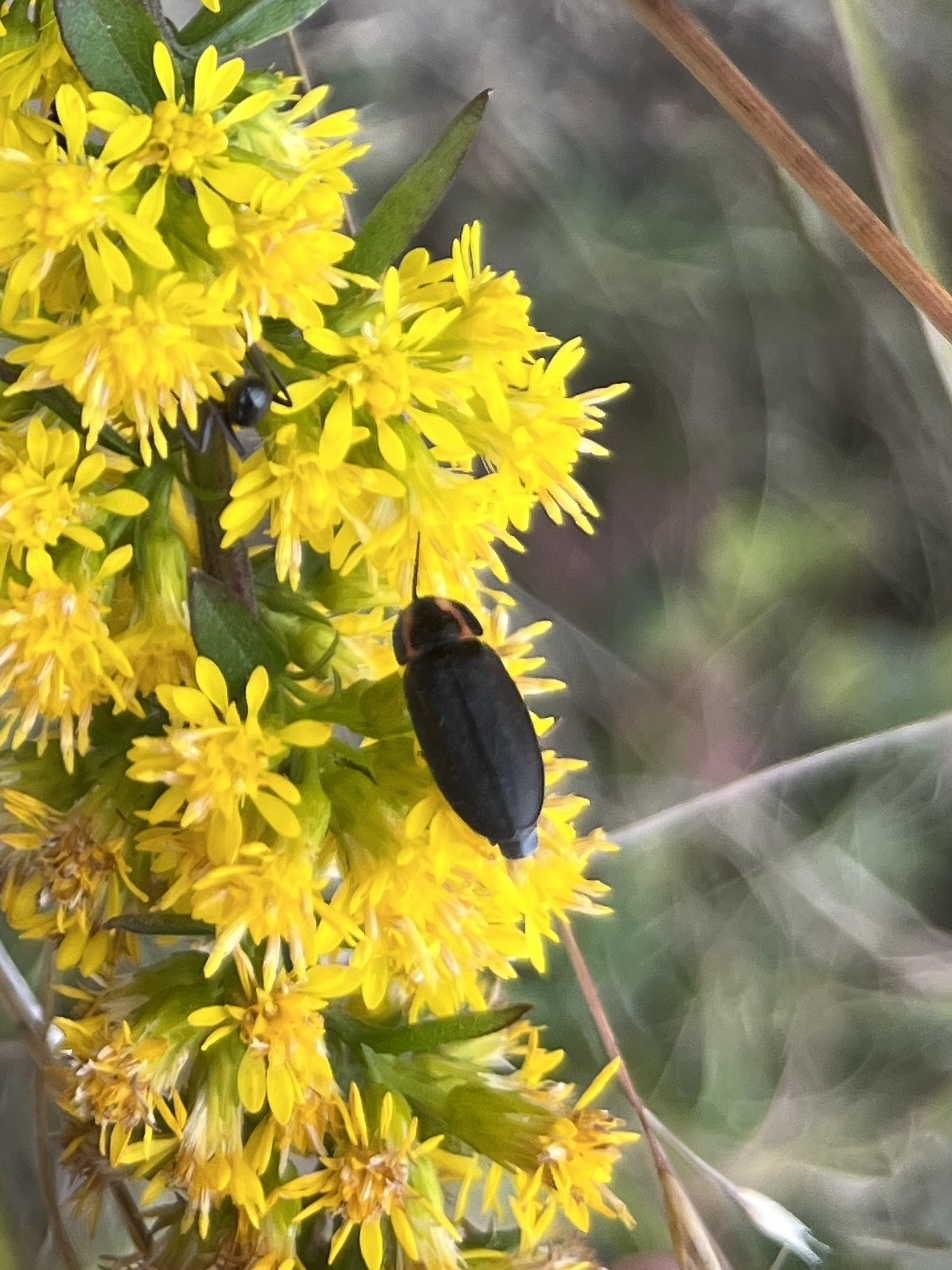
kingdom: Animalia
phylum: Arthropoda
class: Insecta
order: Coleoptera
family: Lampyridae
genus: Photinus
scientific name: Photinus corrusca
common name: Winter firefly
